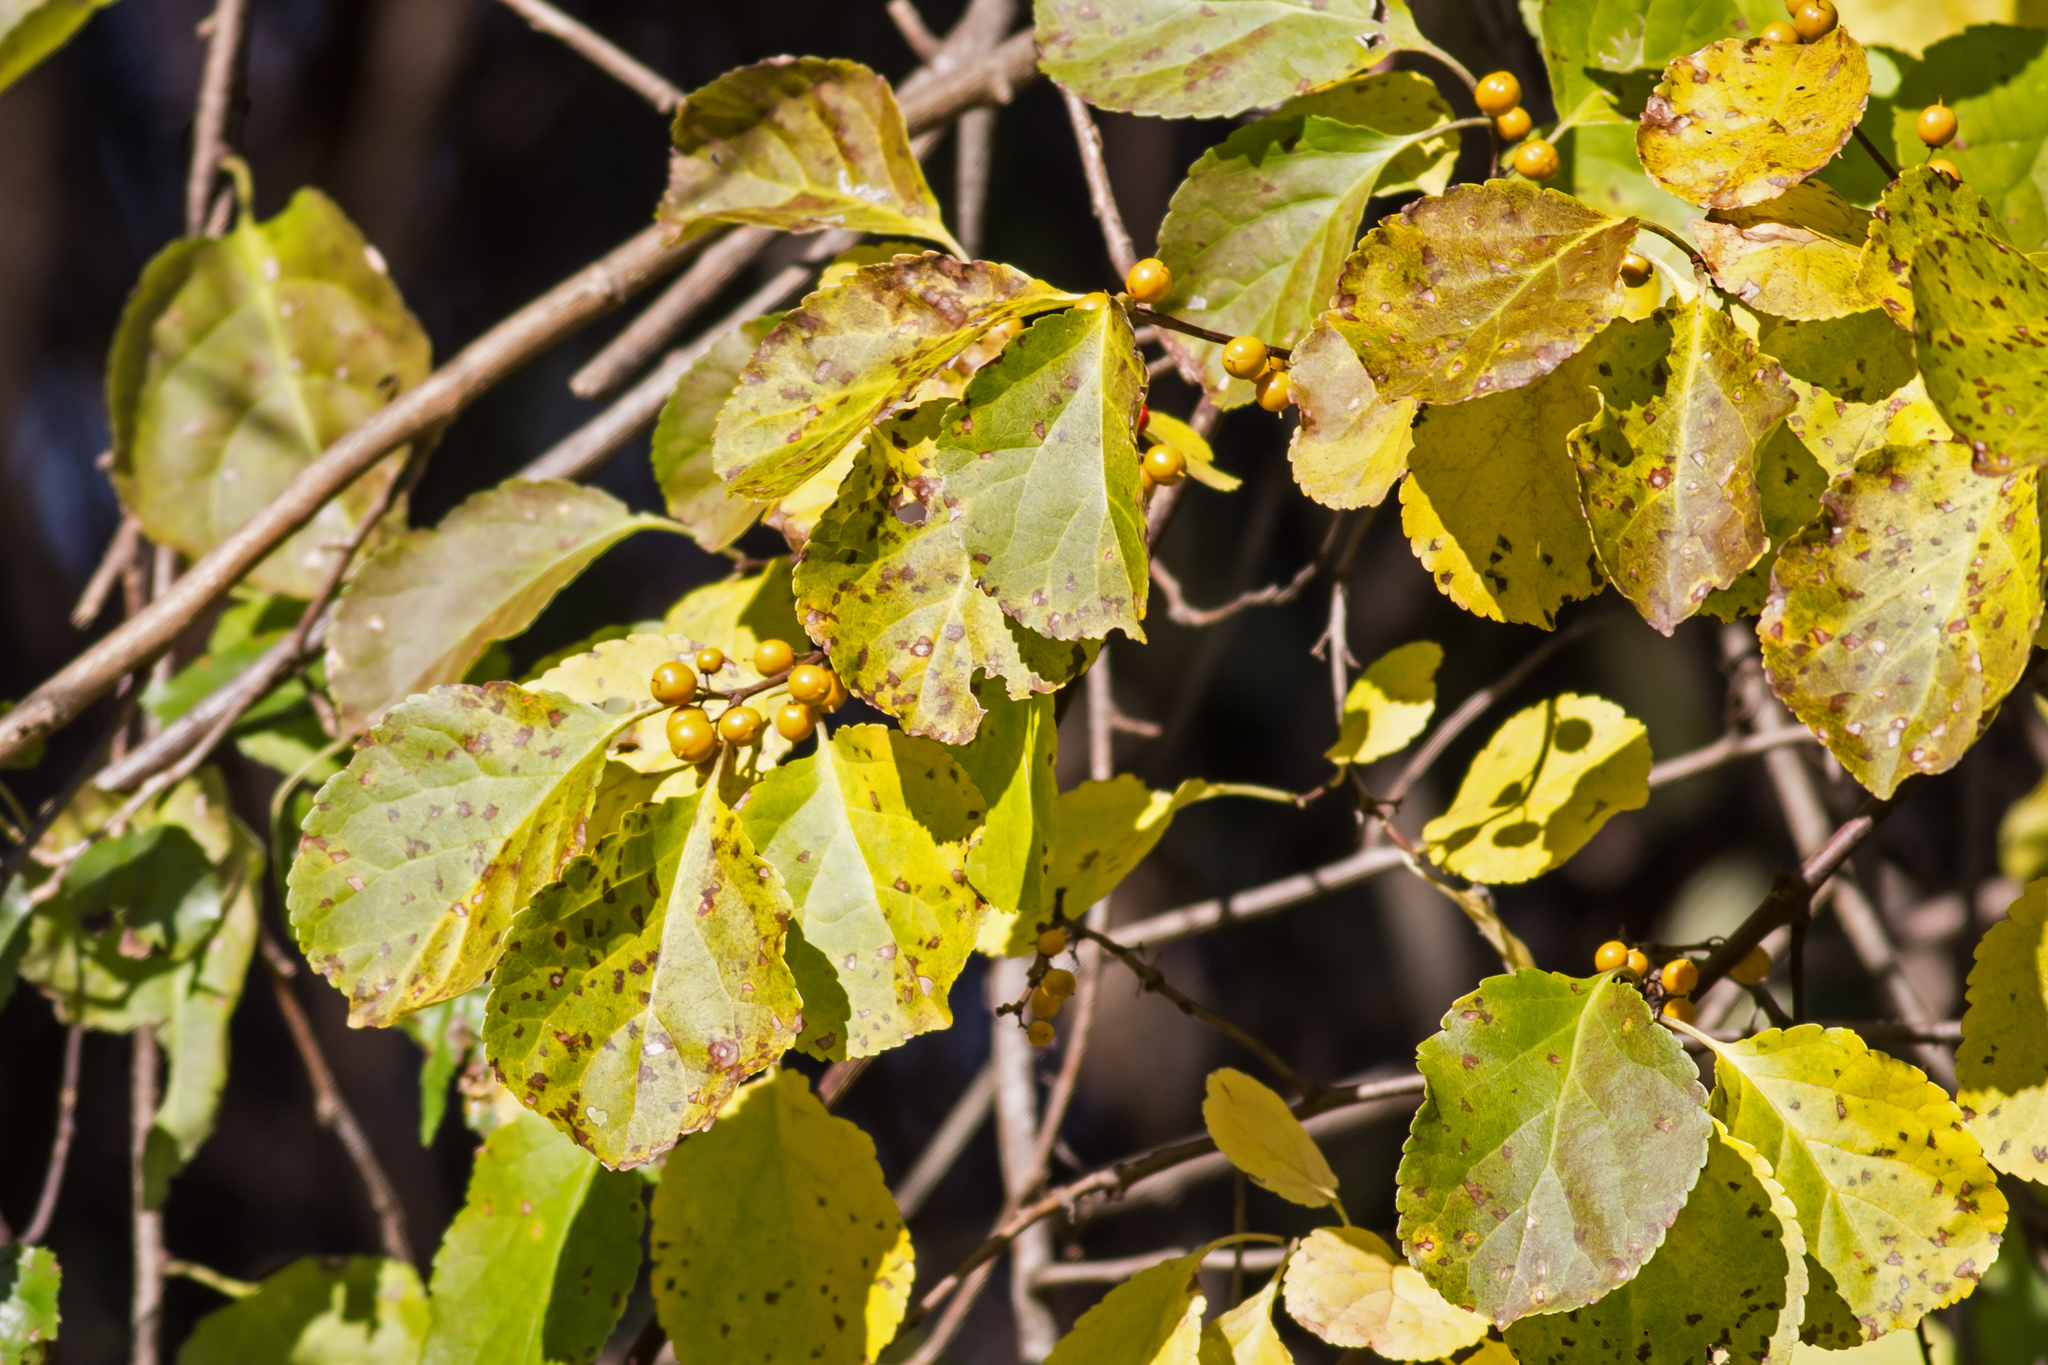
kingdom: Plantae
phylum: Tracheophyta
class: Magnoliopsida
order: Celastrales
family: Celastraceae
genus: Celastrus
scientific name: Celastrus orbiculatus
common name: Oriental bittersweet
